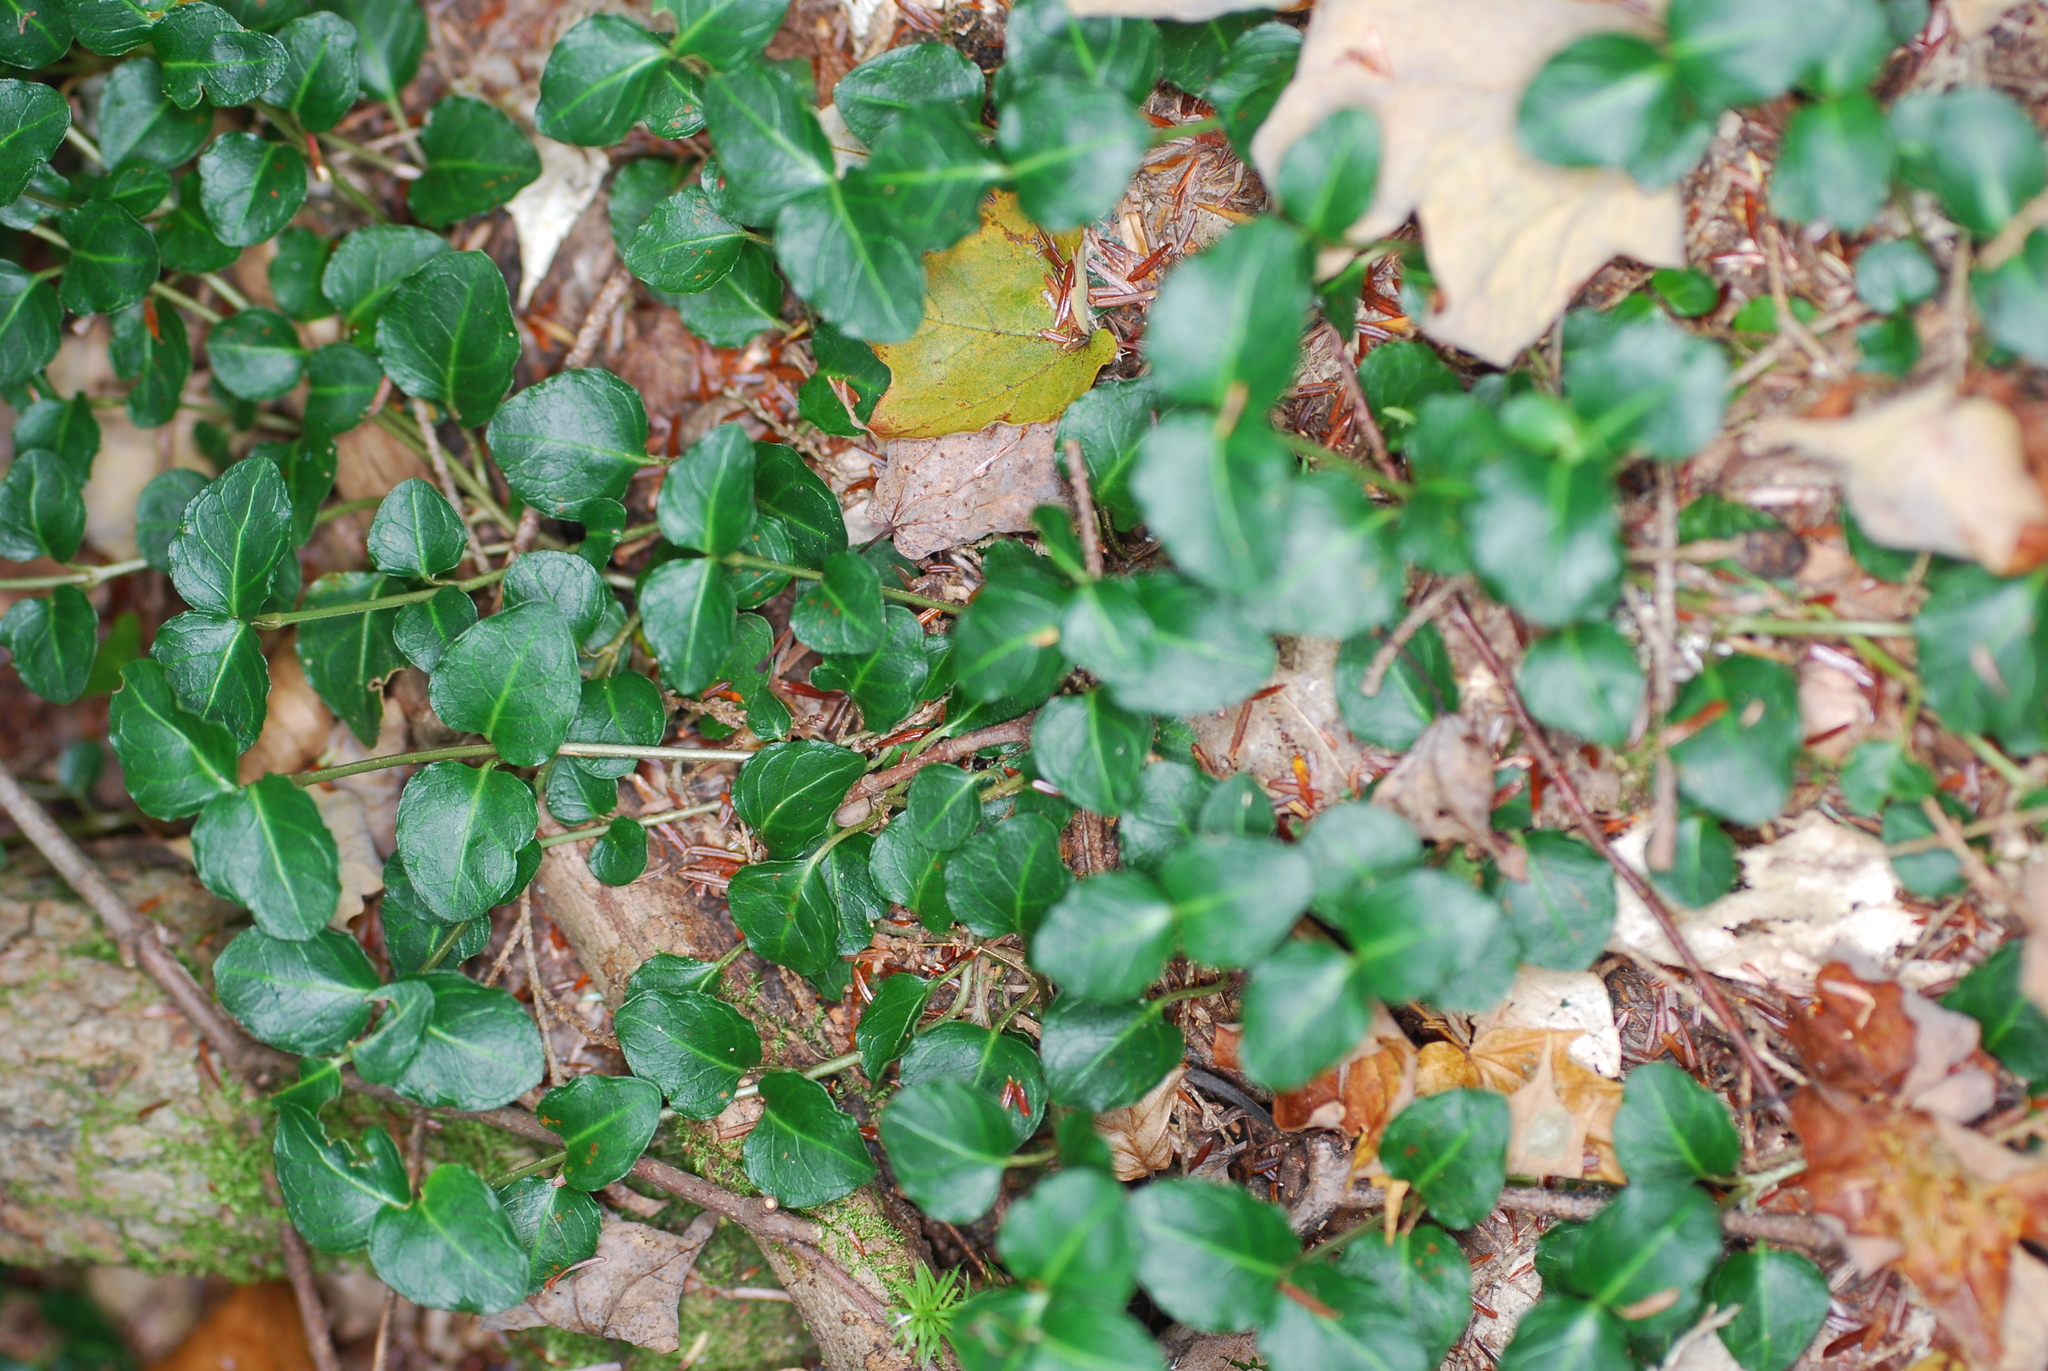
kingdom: Plantae
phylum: Tracheophyta
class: Magnoliopsida
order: Gentianales
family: Rubiaceae
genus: Mitchella
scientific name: Mitchella repens
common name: Partridge-berry
